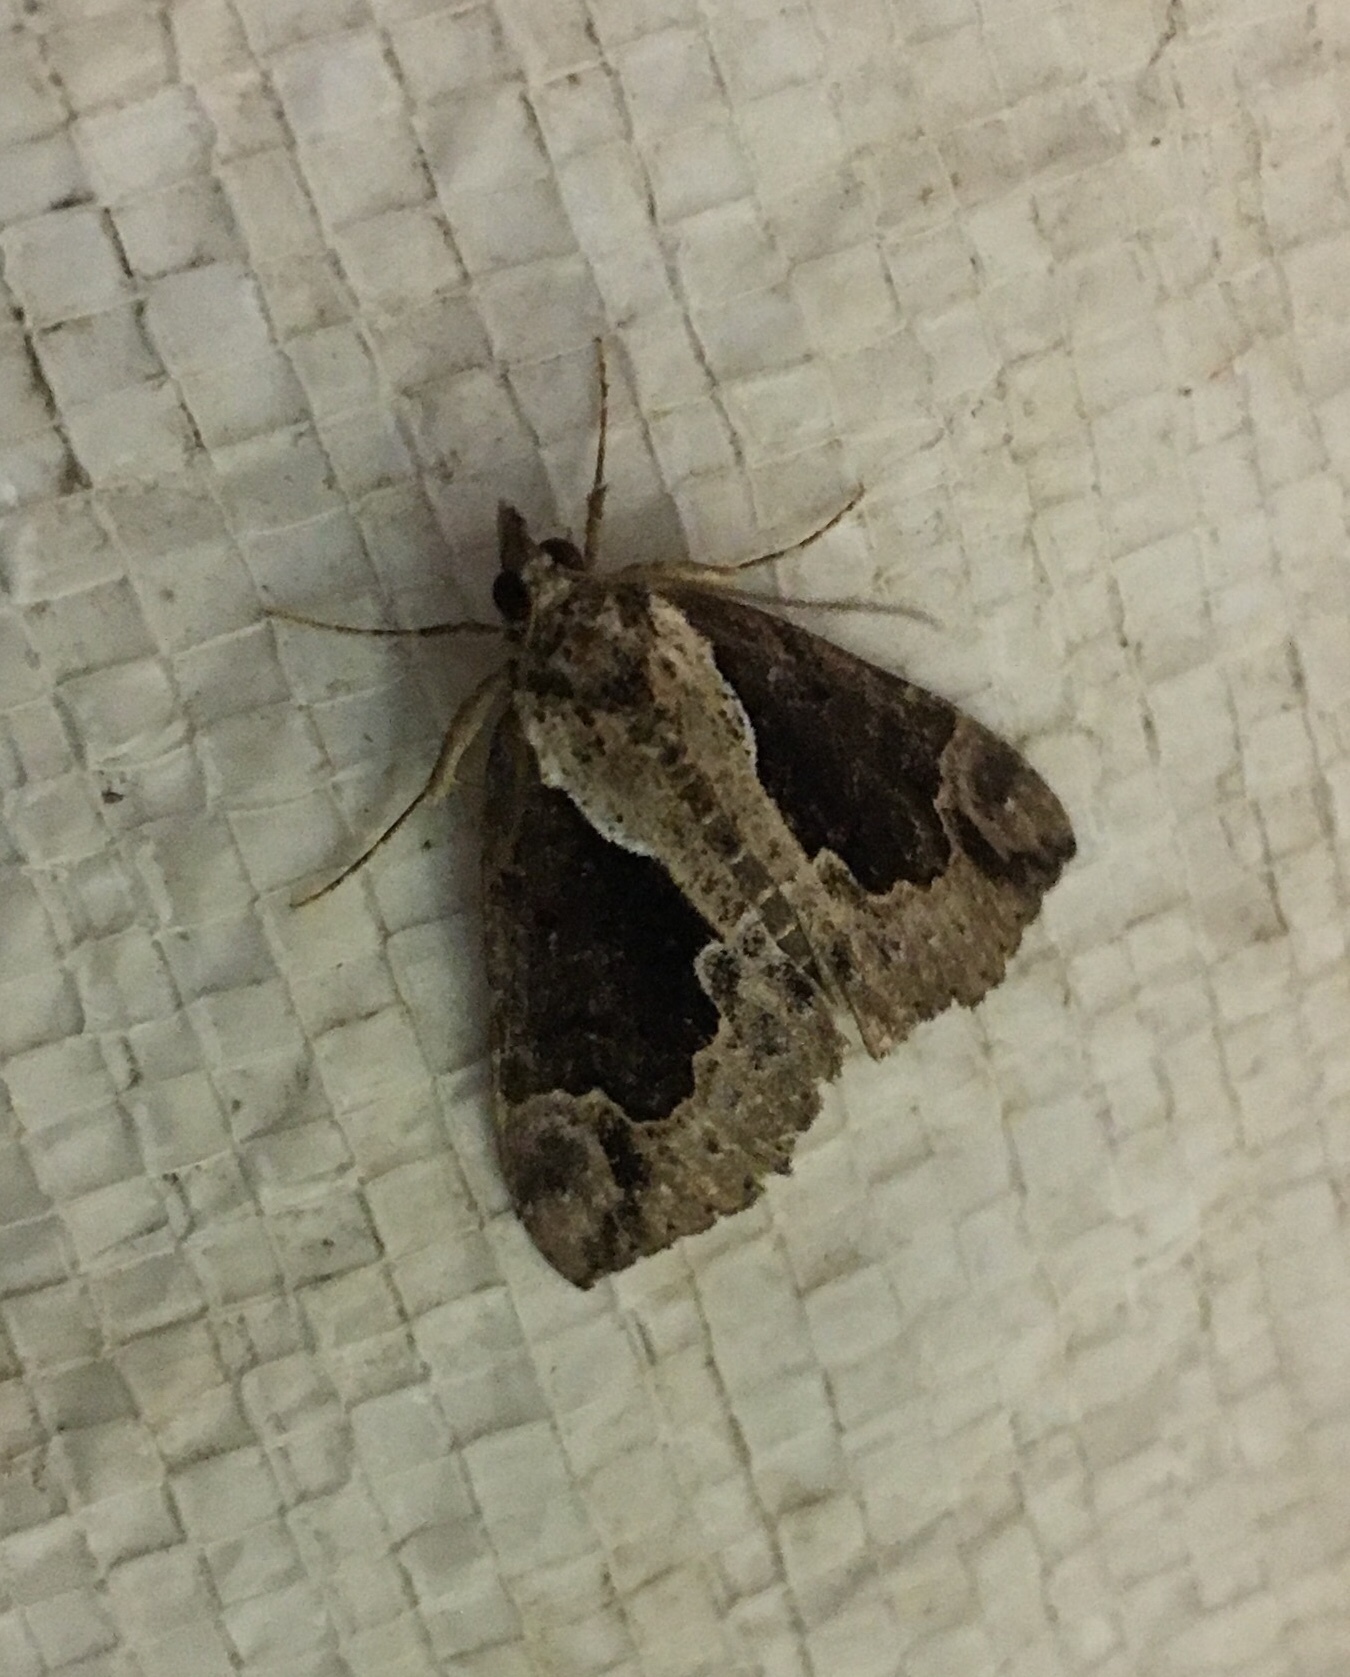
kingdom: Animalia
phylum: Arthropoda
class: Insecta
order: Lepidoptera
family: Erebidae
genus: Hypena
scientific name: Hypena baltimoralis
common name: Baltimore snout
